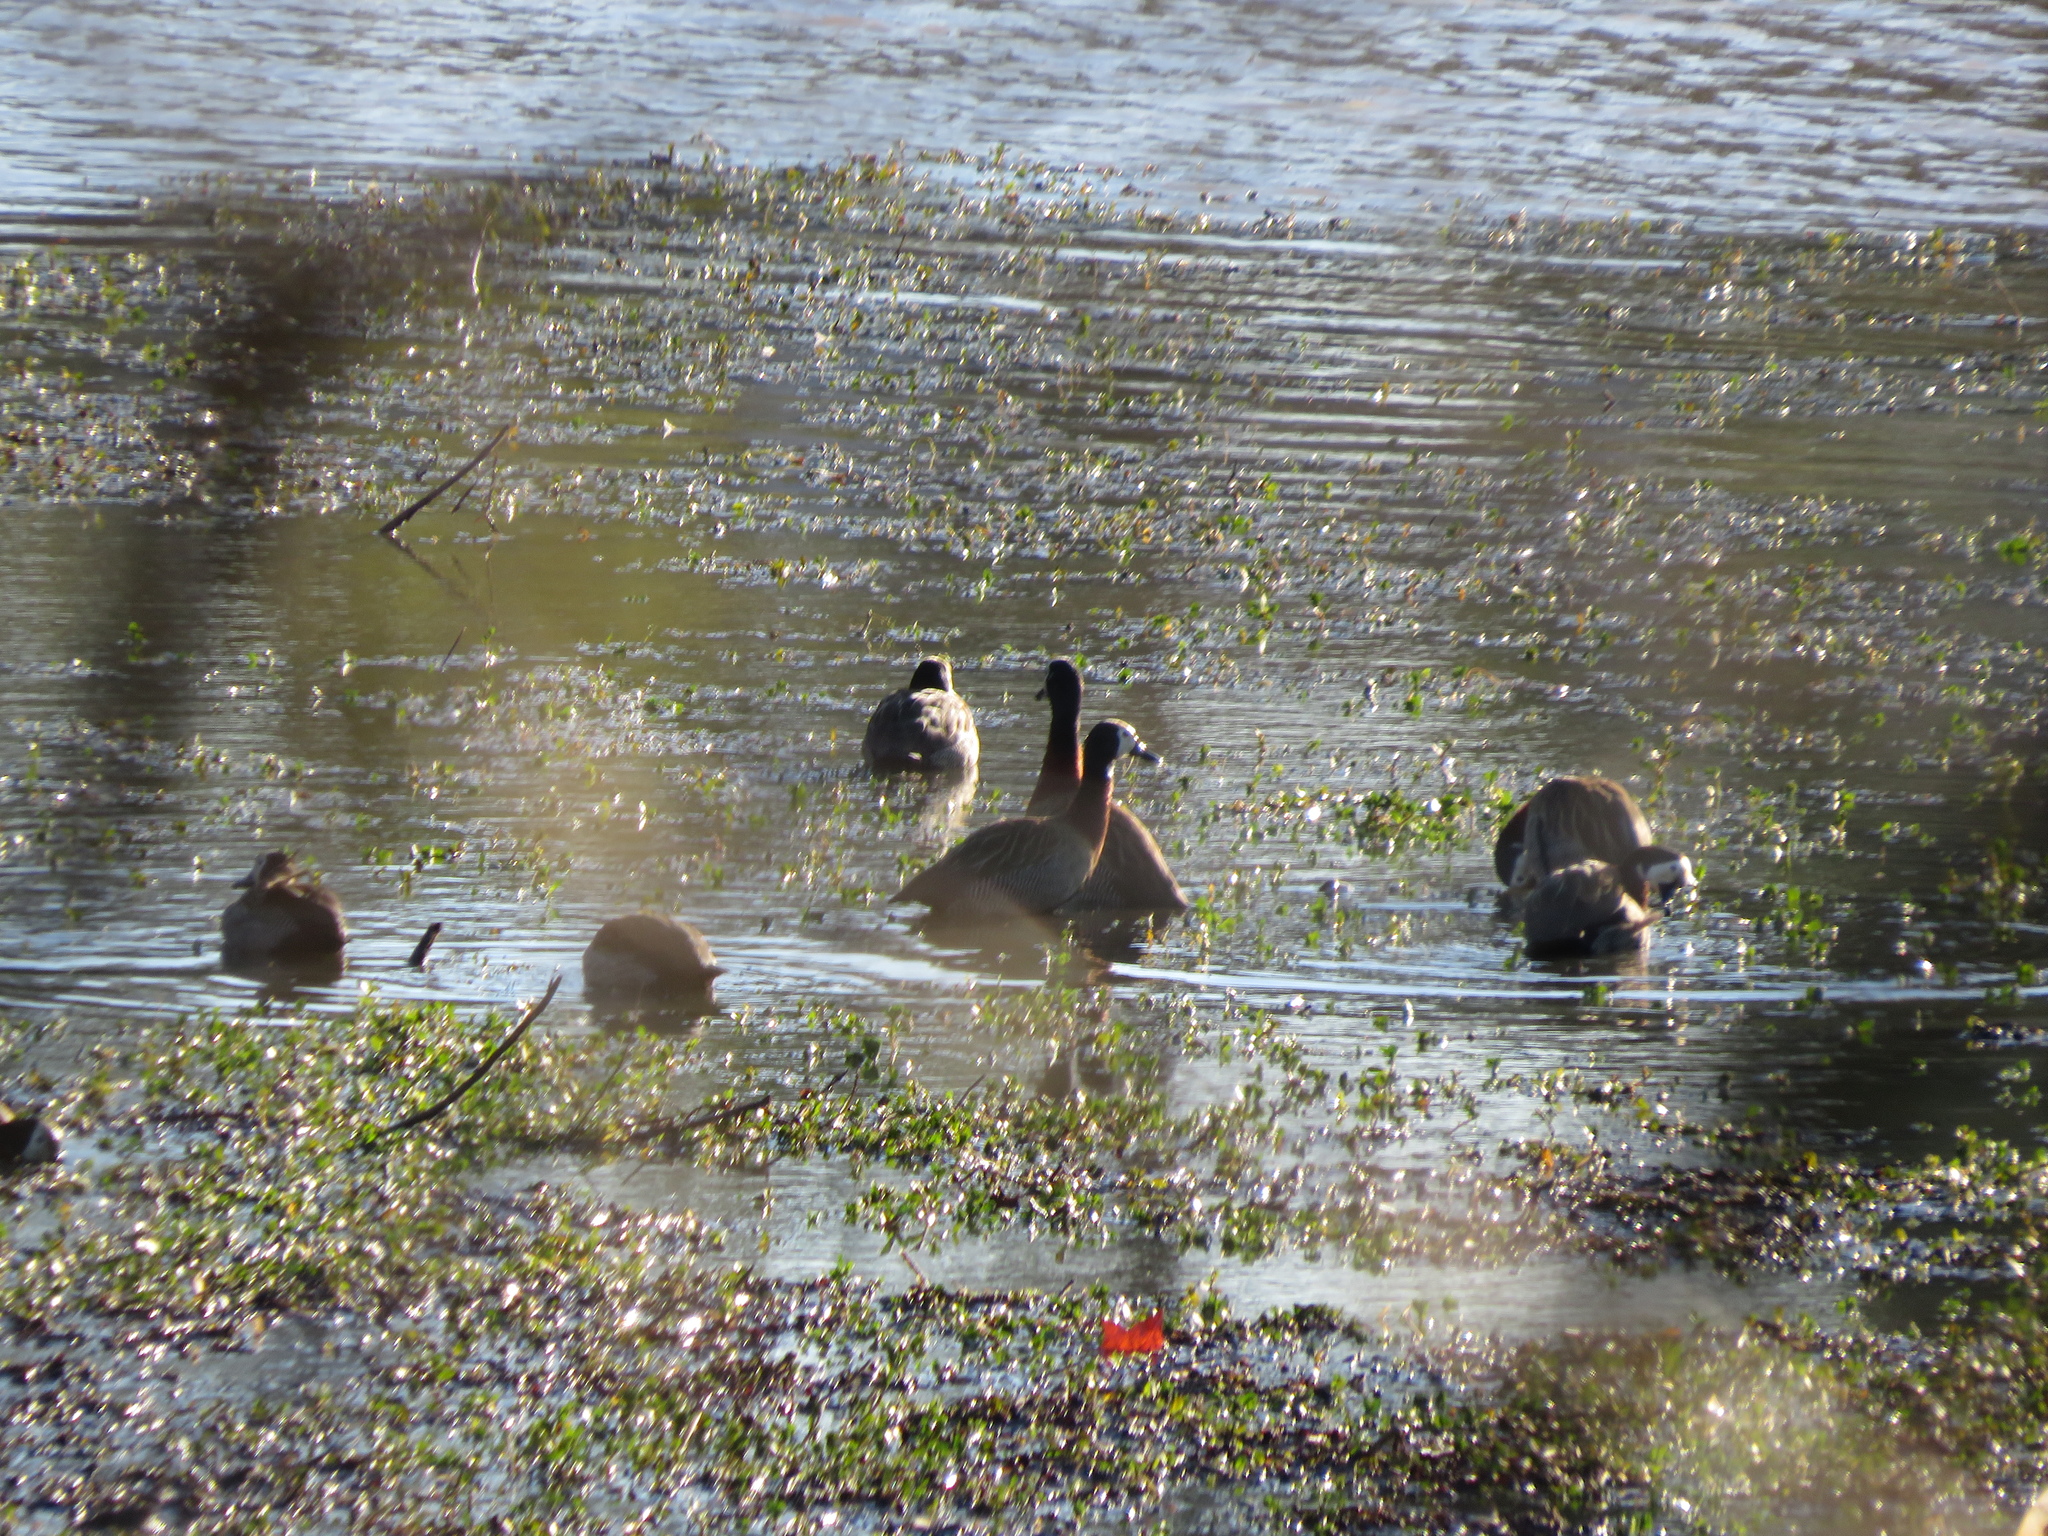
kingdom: Animalia
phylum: Chordata
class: Aves
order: Anseriformes
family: Anatidae
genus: Dendrocygna
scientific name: Dendrocygna viduata
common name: White-faced whistling duck
